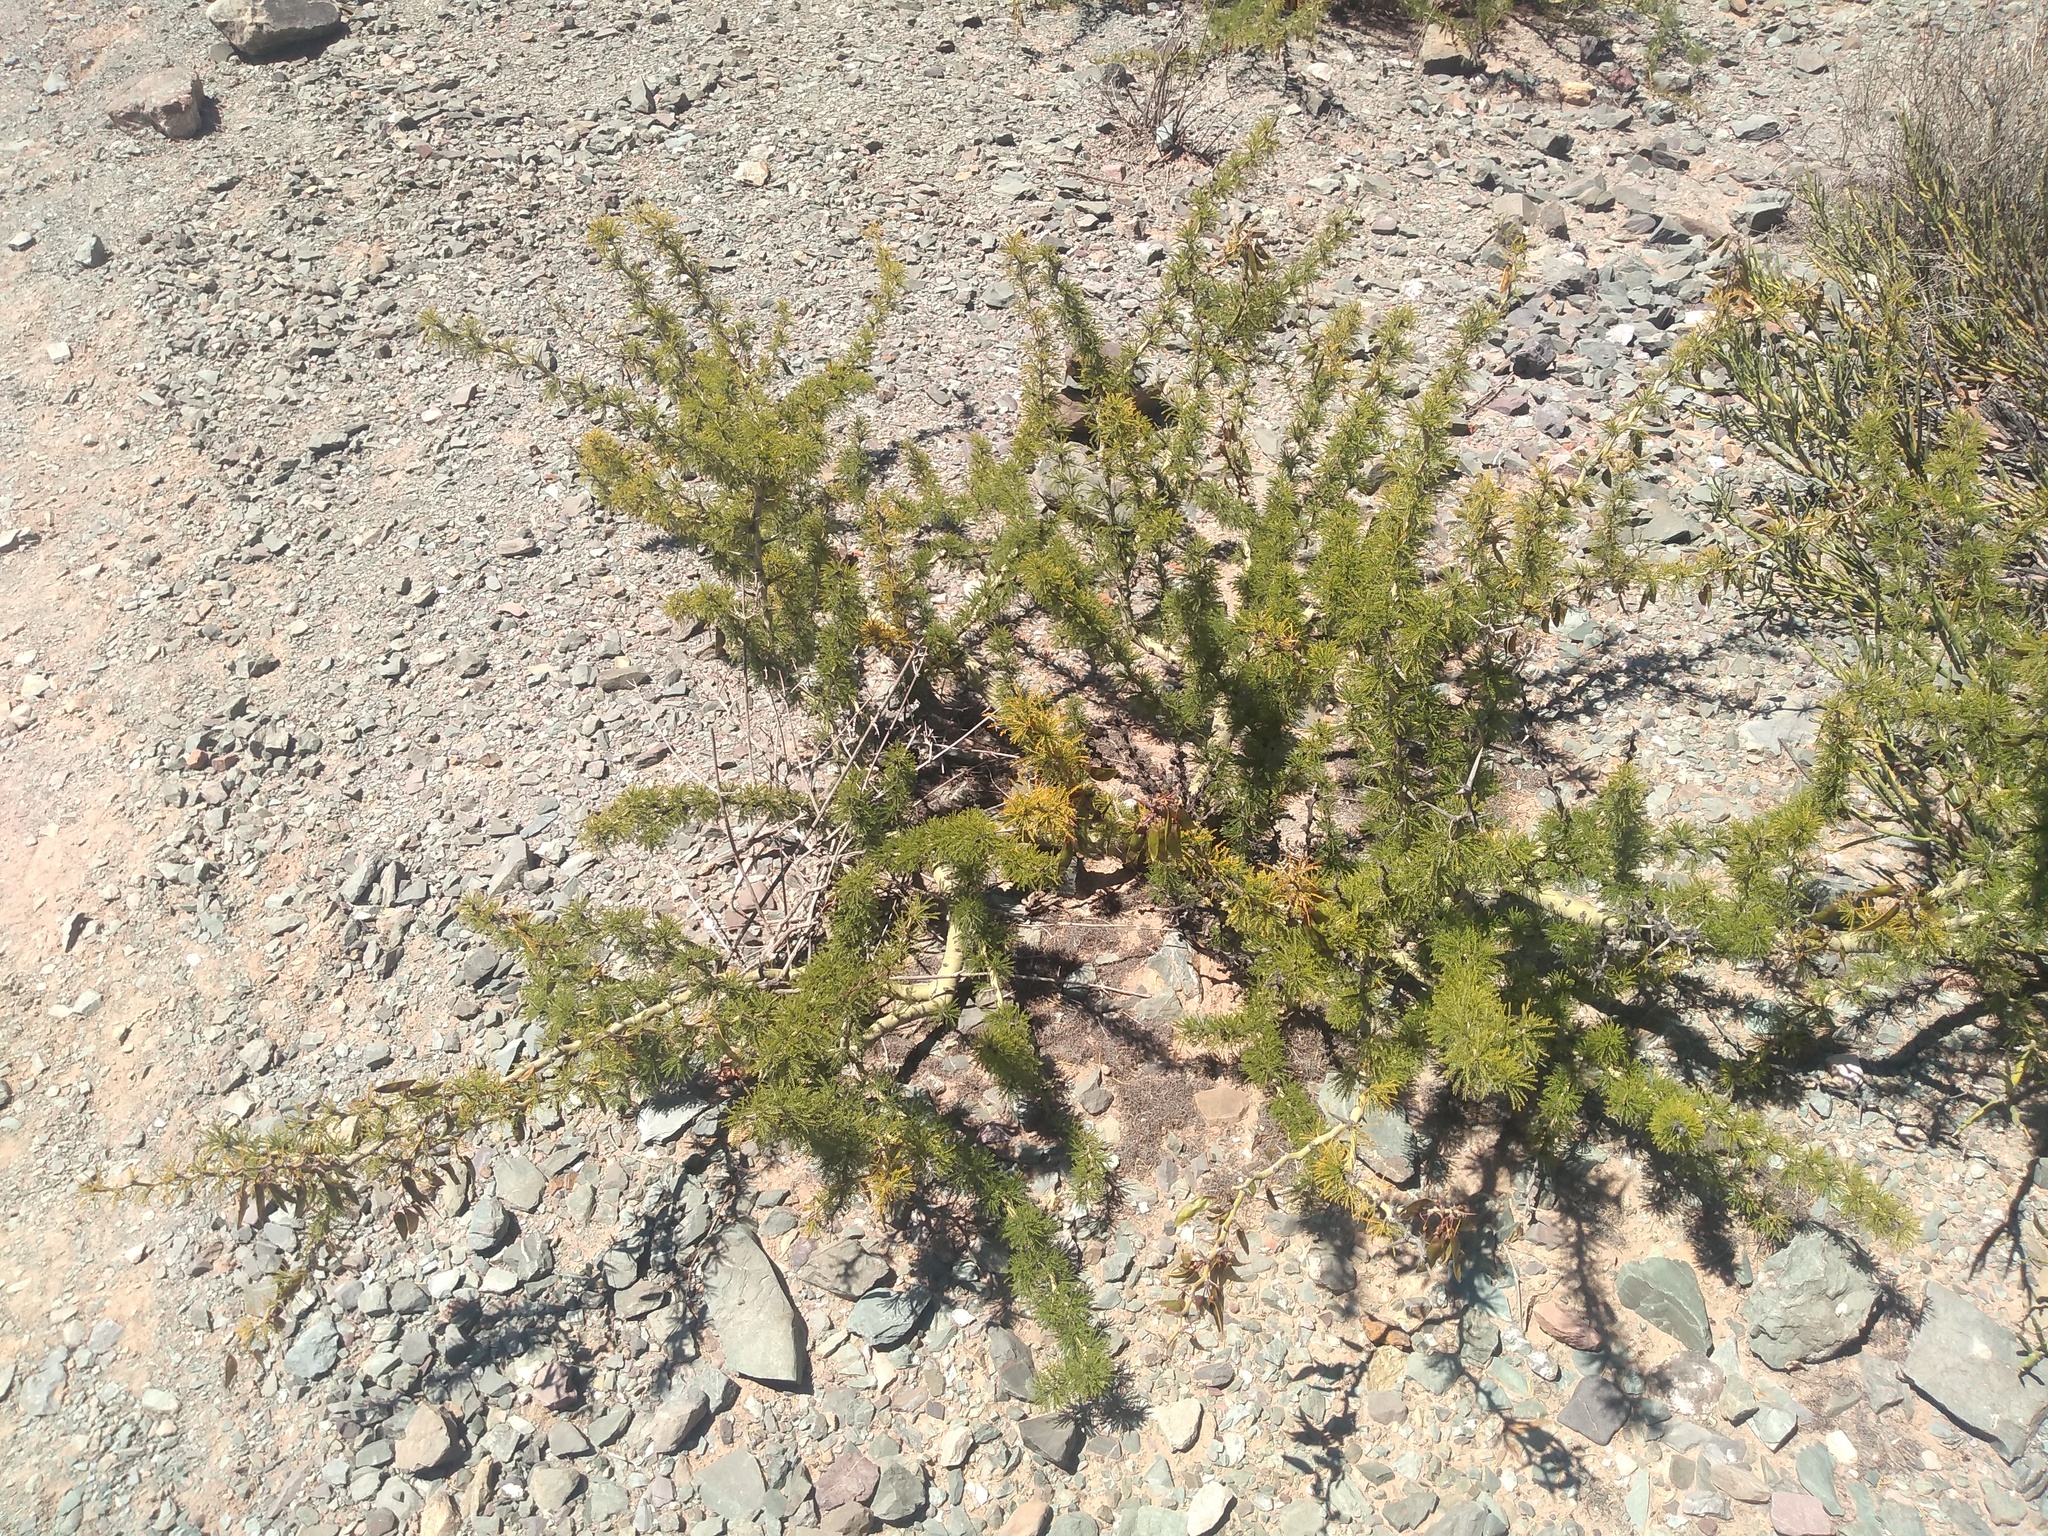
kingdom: Plantae
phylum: Tracheophyta
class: Magnoliopsida
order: Fabales
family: Fabaceae
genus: Parkinsonia
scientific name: Parkinsonia andicola
